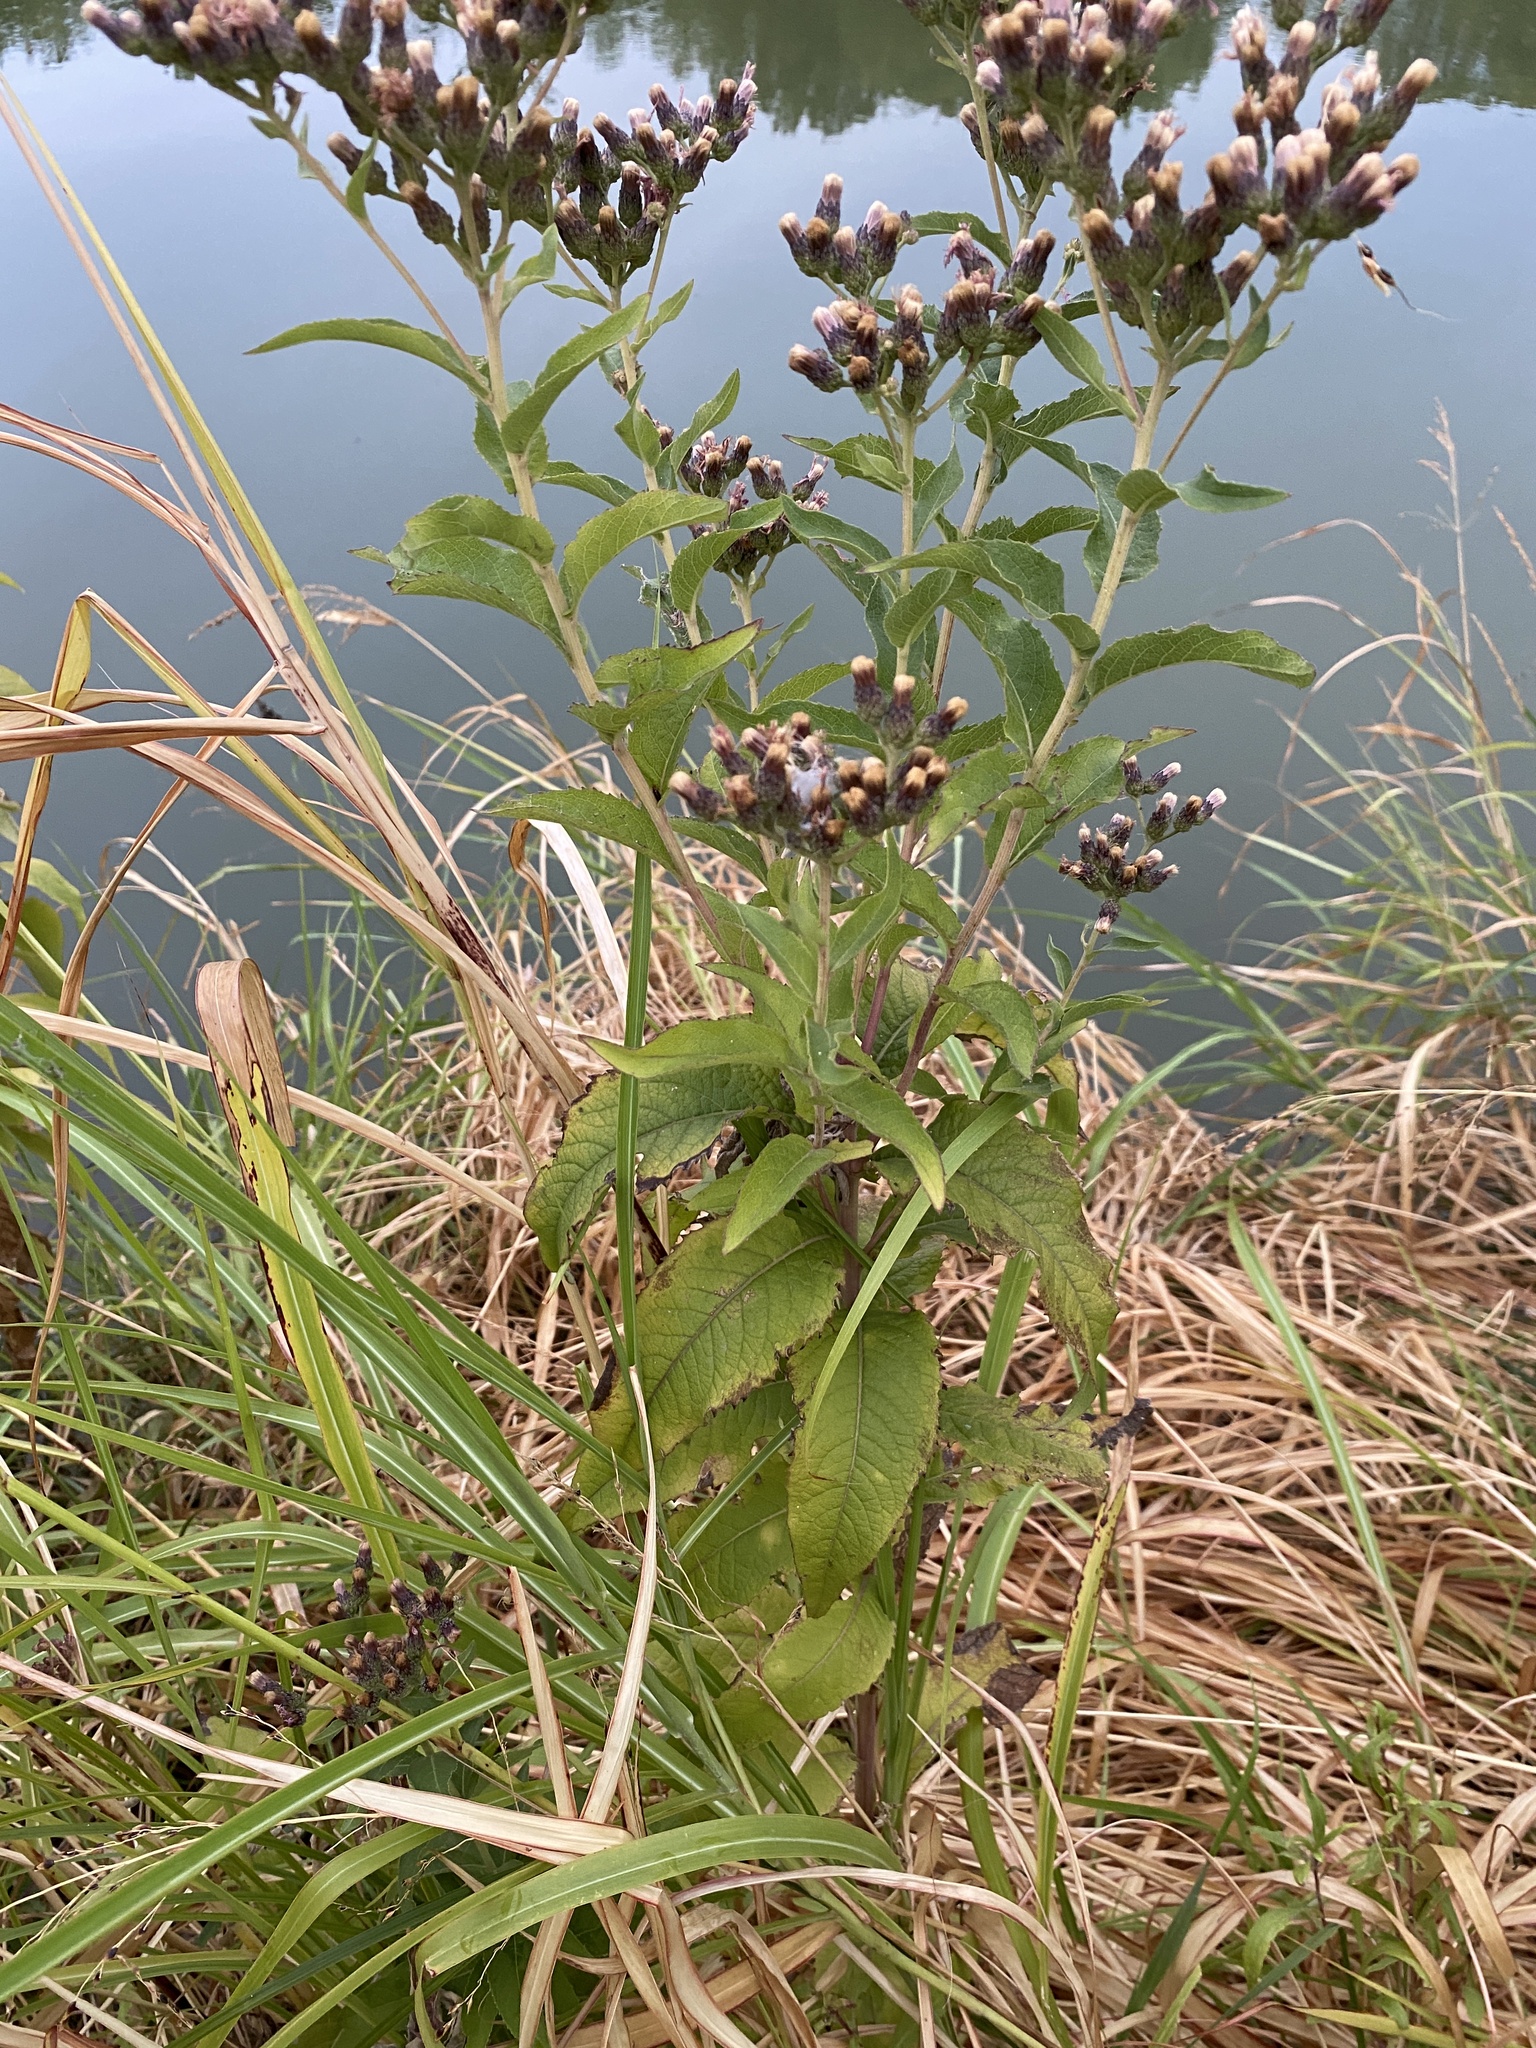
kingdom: Plantae
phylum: Tracheophyta
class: Magnoliopsida
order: Asterales
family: Asteraceae
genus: Vernonia
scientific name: Vernonia baldwinii
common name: Western ironweed
